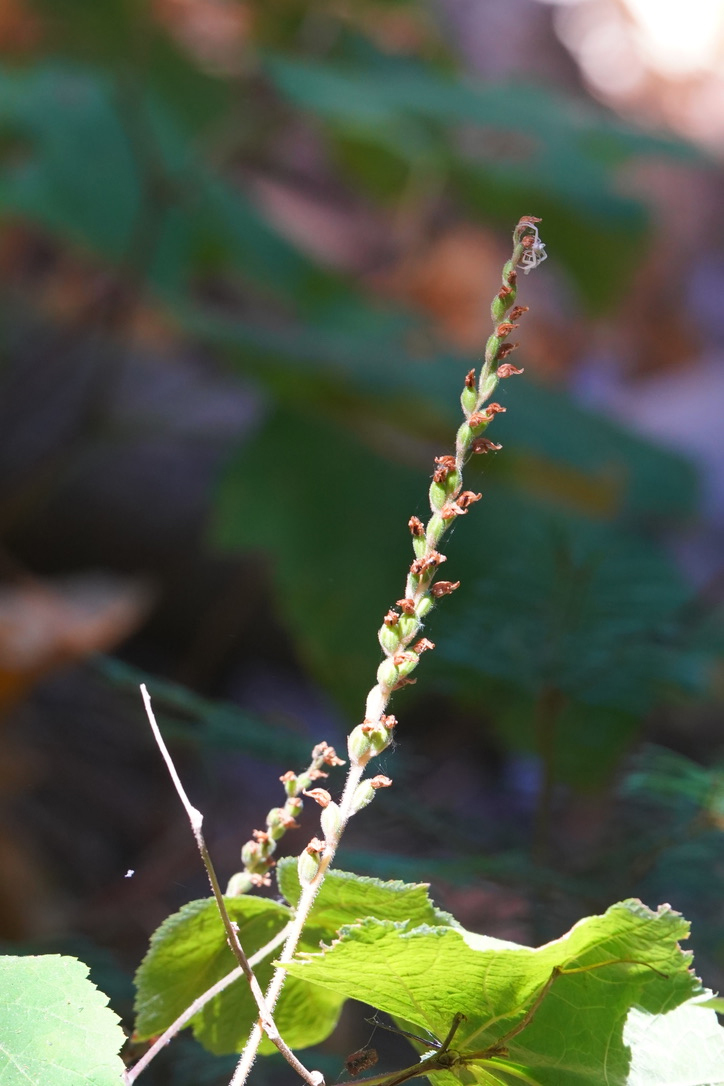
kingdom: Plantae
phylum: Tracheophyta
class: Liliopsida
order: Asparagales
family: Orchidaceae
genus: Goodyera
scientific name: Goodyera oblongifolia
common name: Giant rattlesnake-plantain
